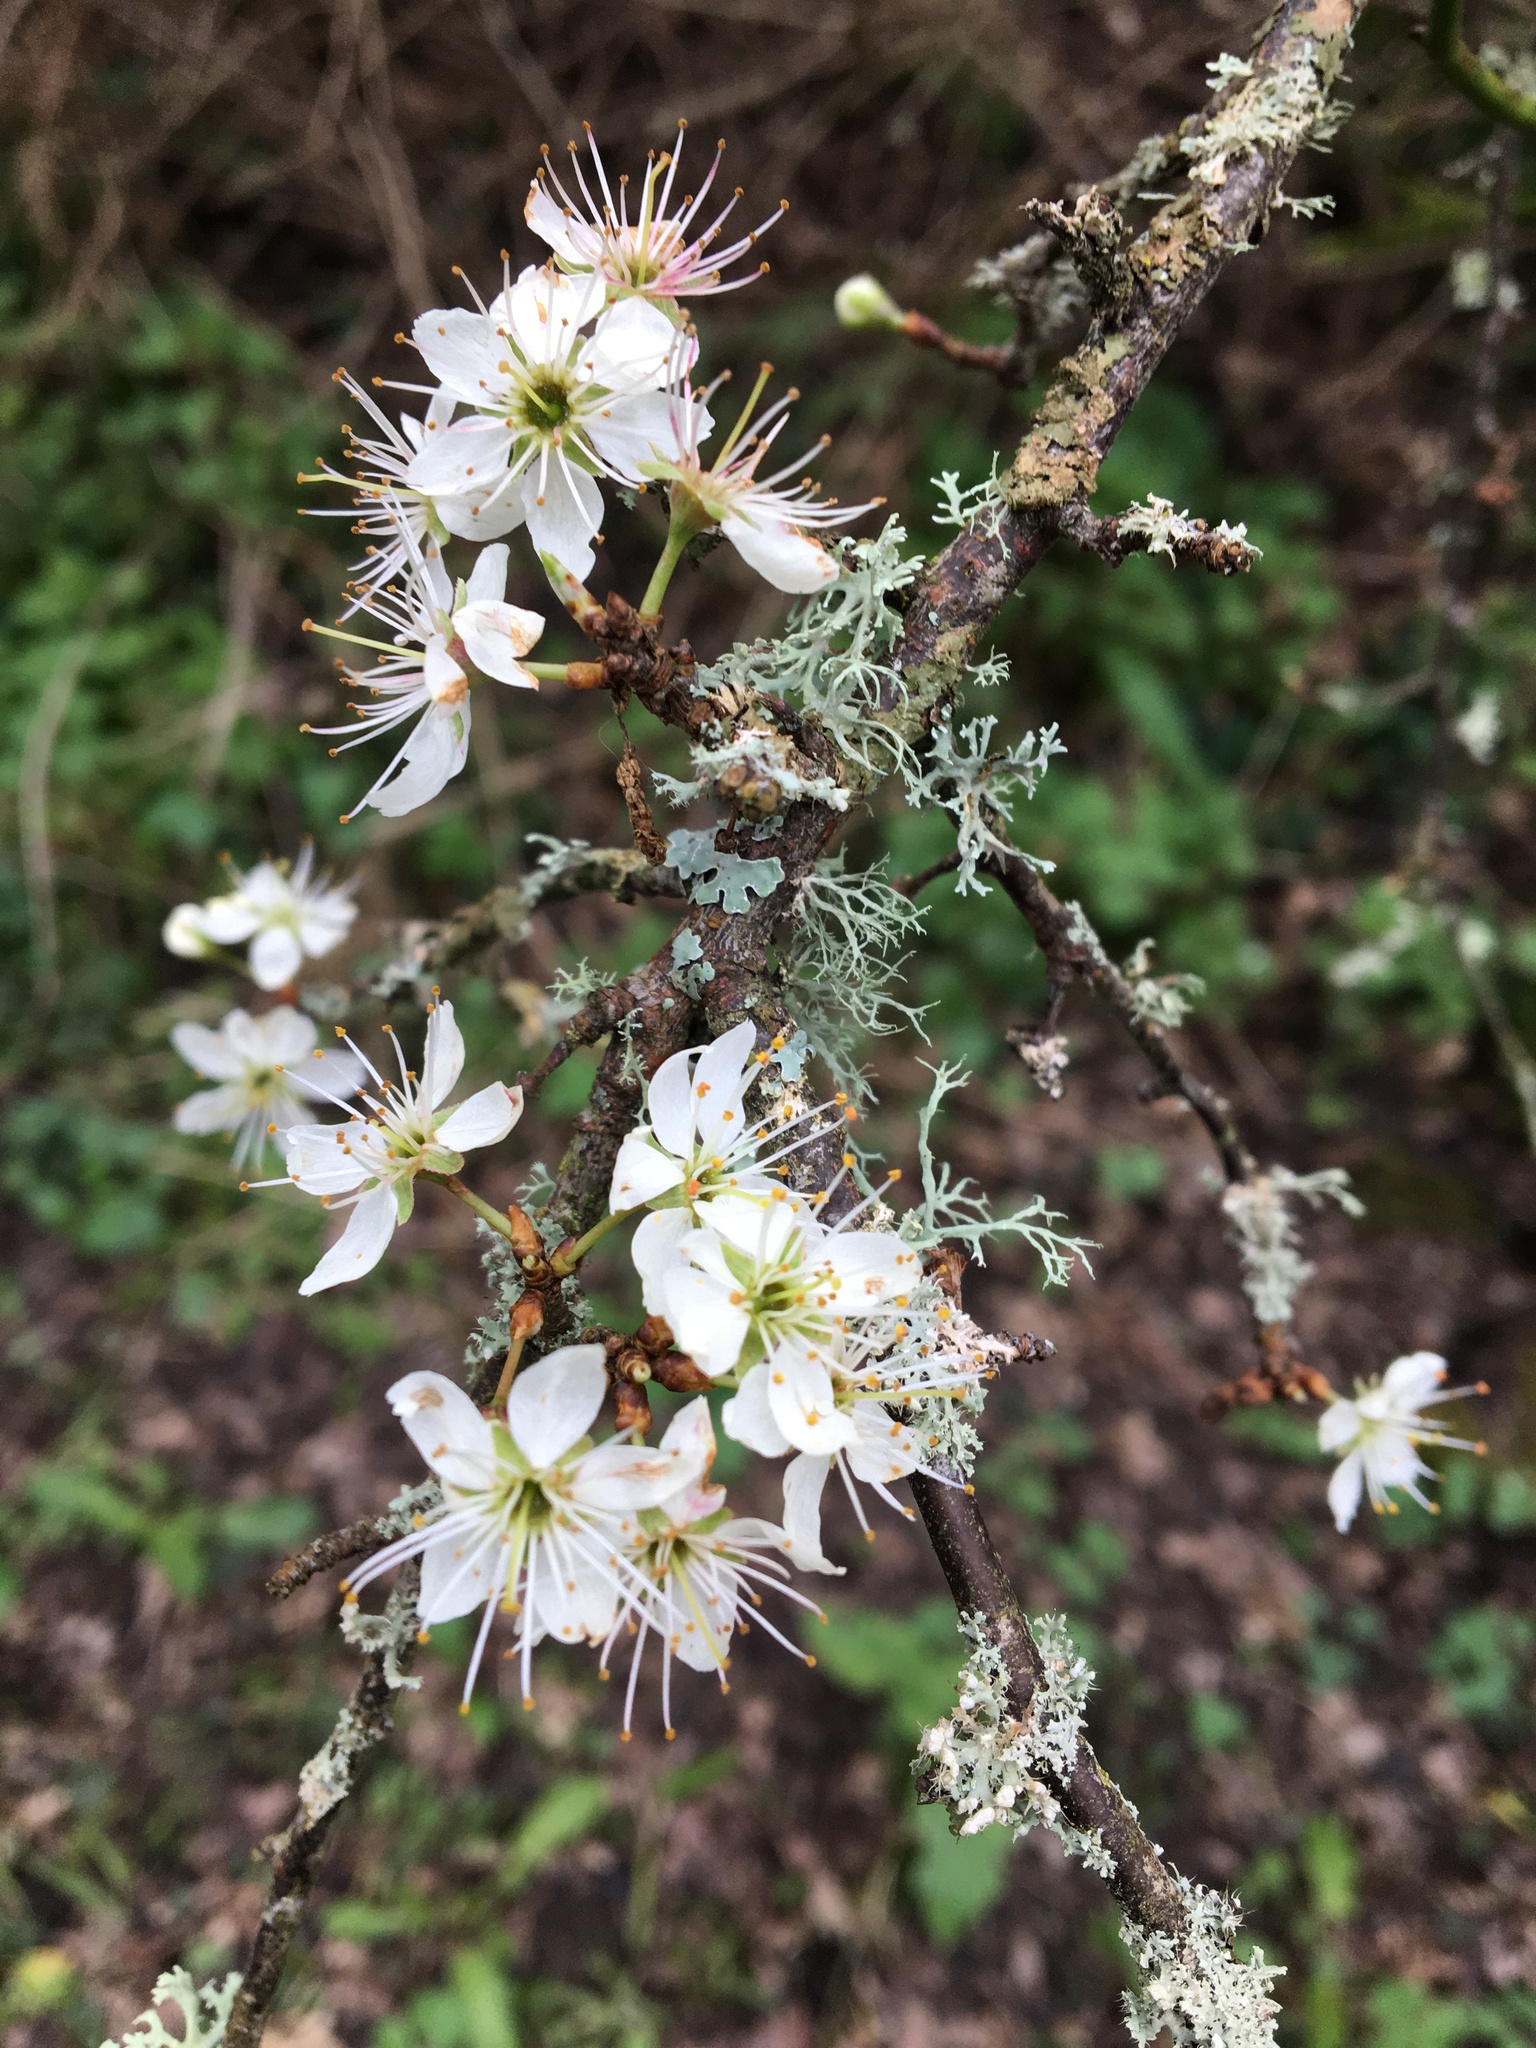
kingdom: Plantae
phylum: Tracheophyta
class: Magnoliopsida
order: Rosales
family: Rosaceae
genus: Prunus
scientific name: Prunus spinosa
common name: Blackthorn
